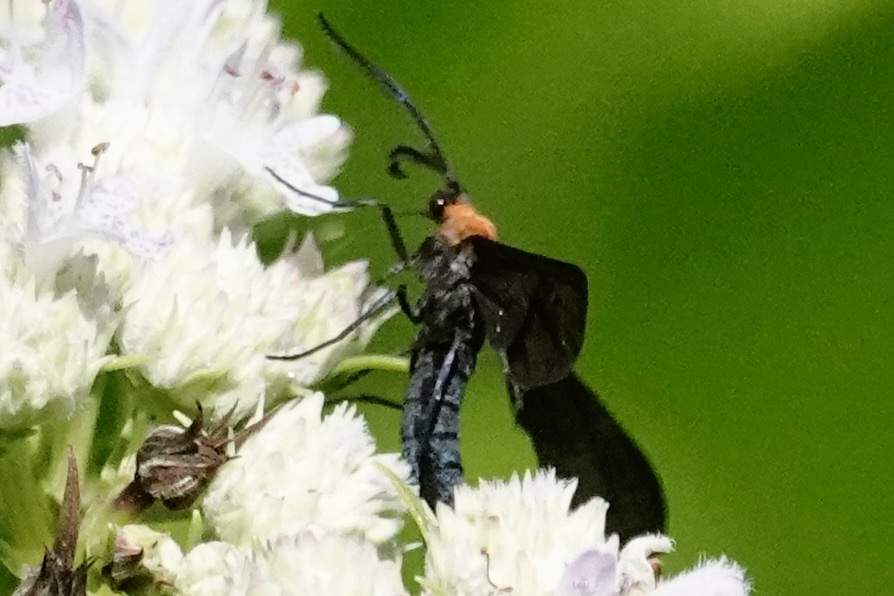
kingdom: Animalia
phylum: Arthropoda
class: Insecta
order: Lepidoptera
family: Zygaenidae
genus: Harrisina
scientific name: Harrisina americana
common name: Grapeleaf skeletonizer moth
